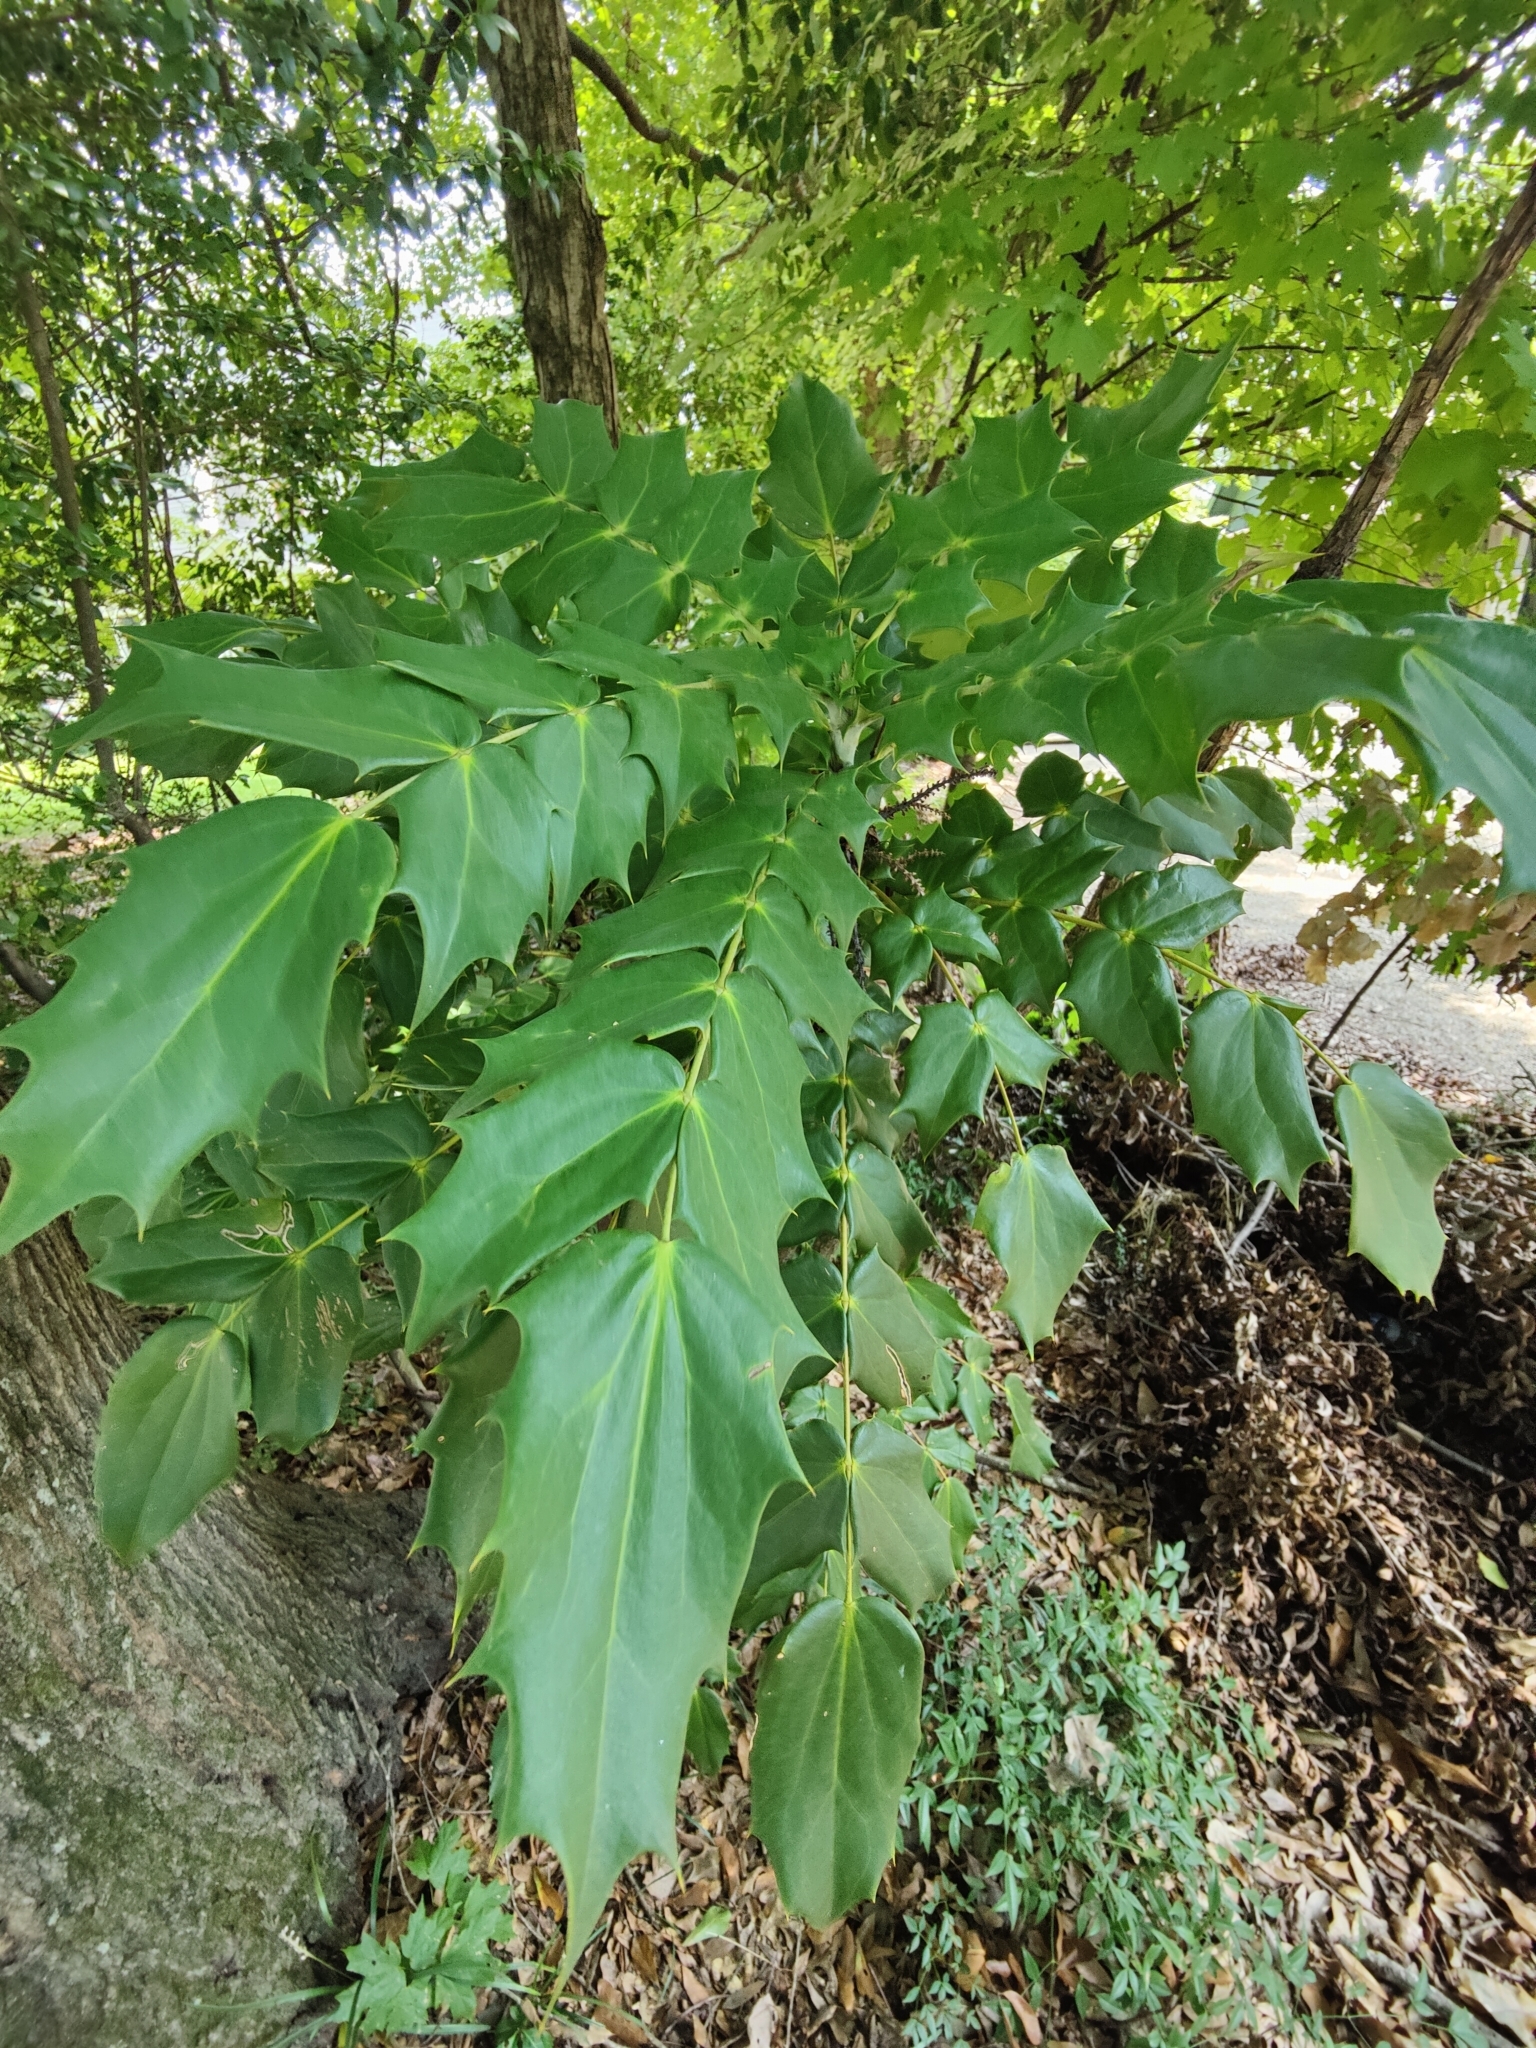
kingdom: Plantae
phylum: Tracheophyta
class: Magnoliopsida
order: Ranunculales
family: Berberidaceae
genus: Mahonia
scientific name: Mahonia bealei
